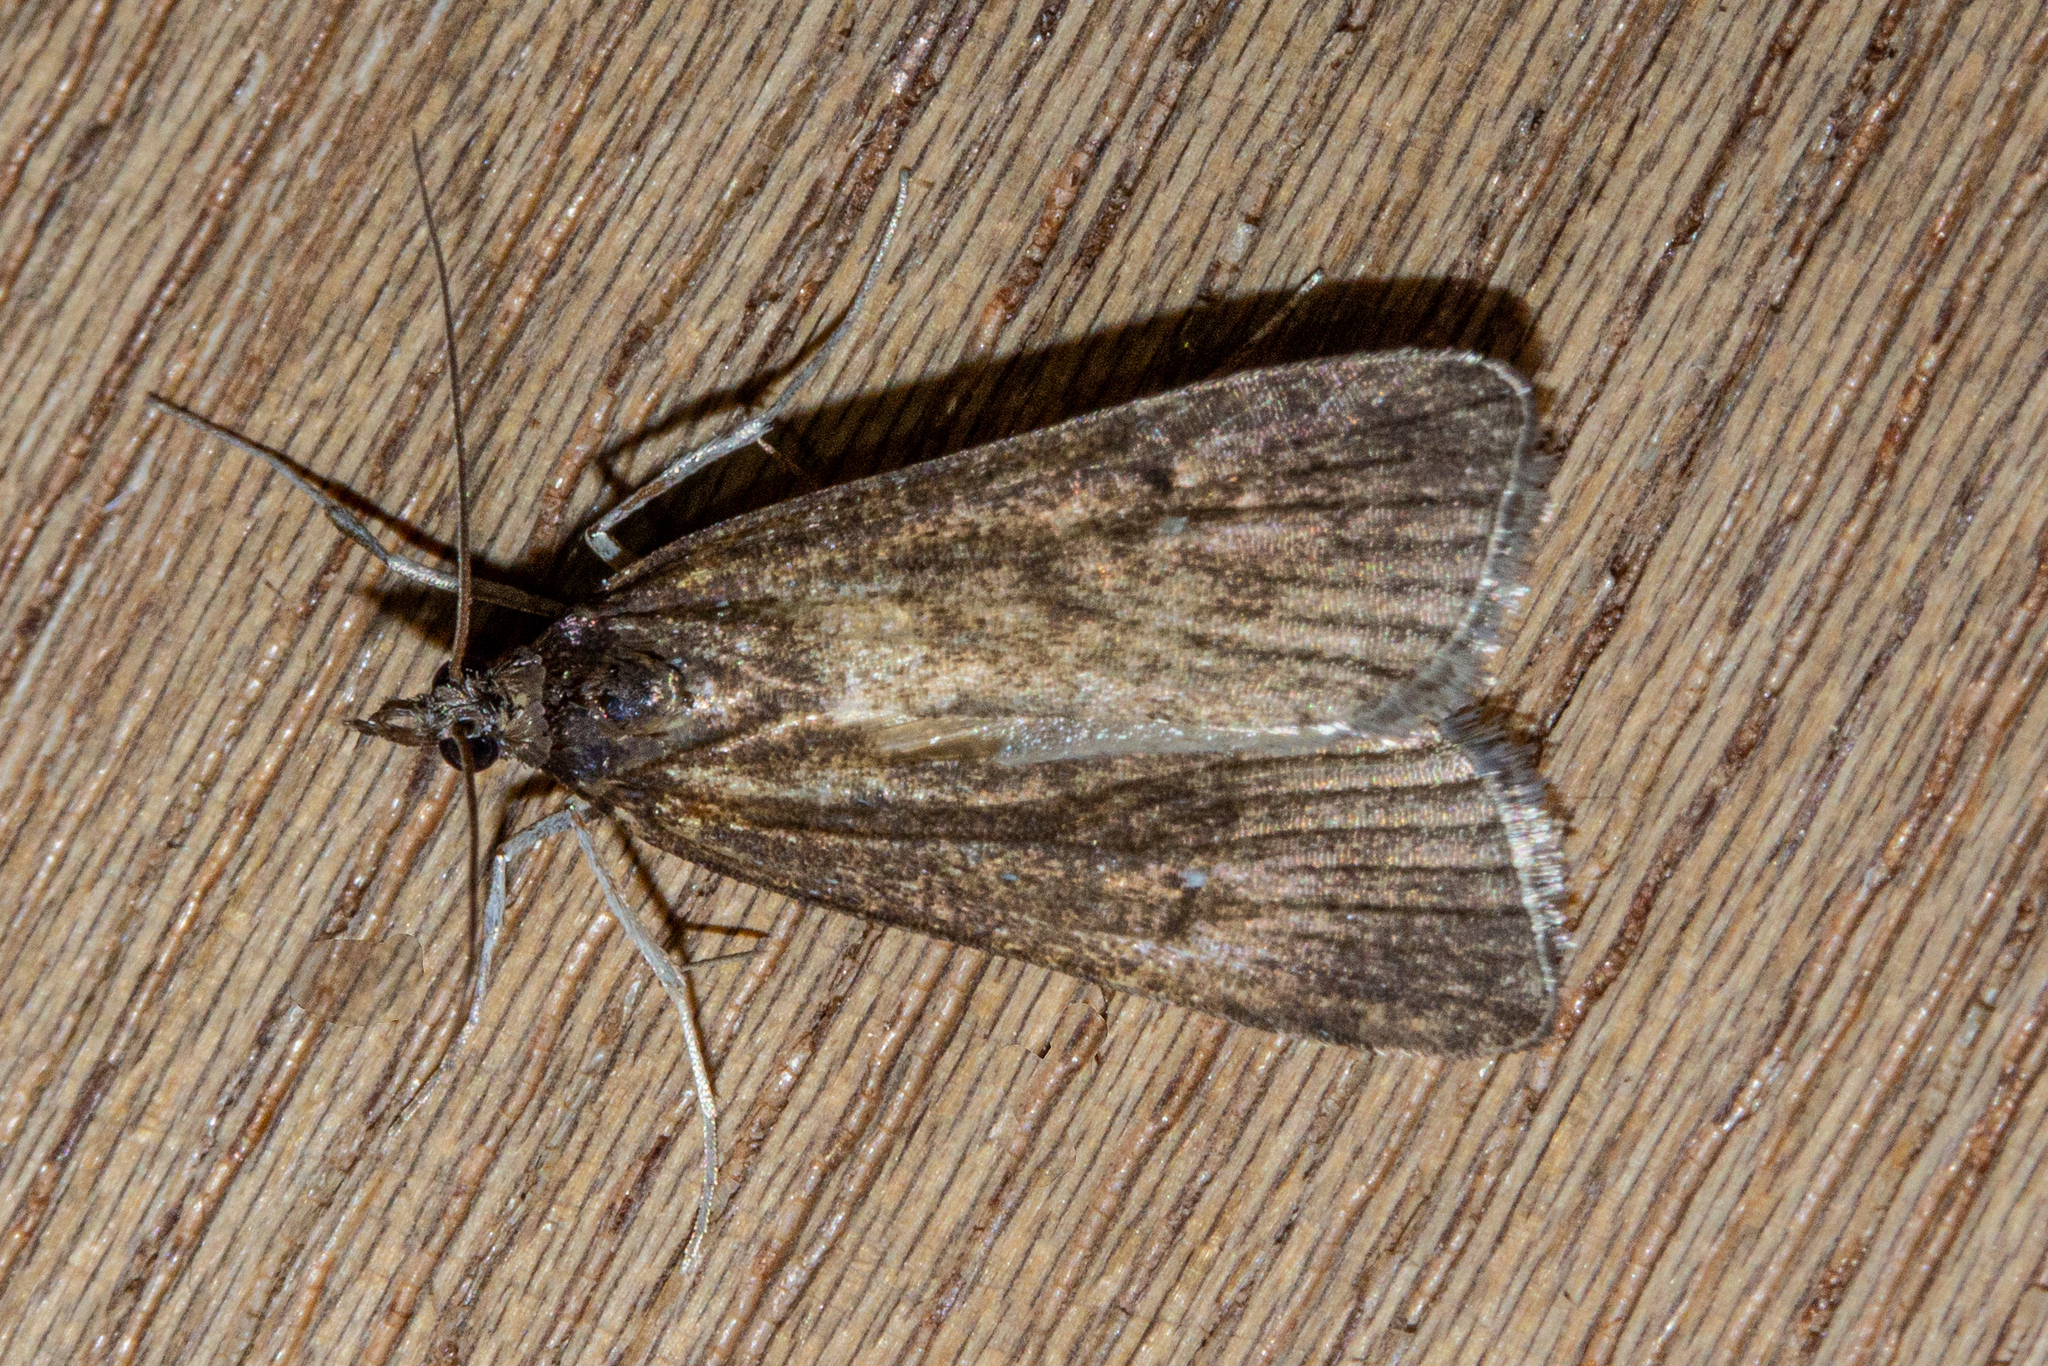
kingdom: Animalia
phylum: Arthropoda
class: Insecta
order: Lepidoptera
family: Crambidae
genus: Eudonia
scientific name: Eudonia oculata
